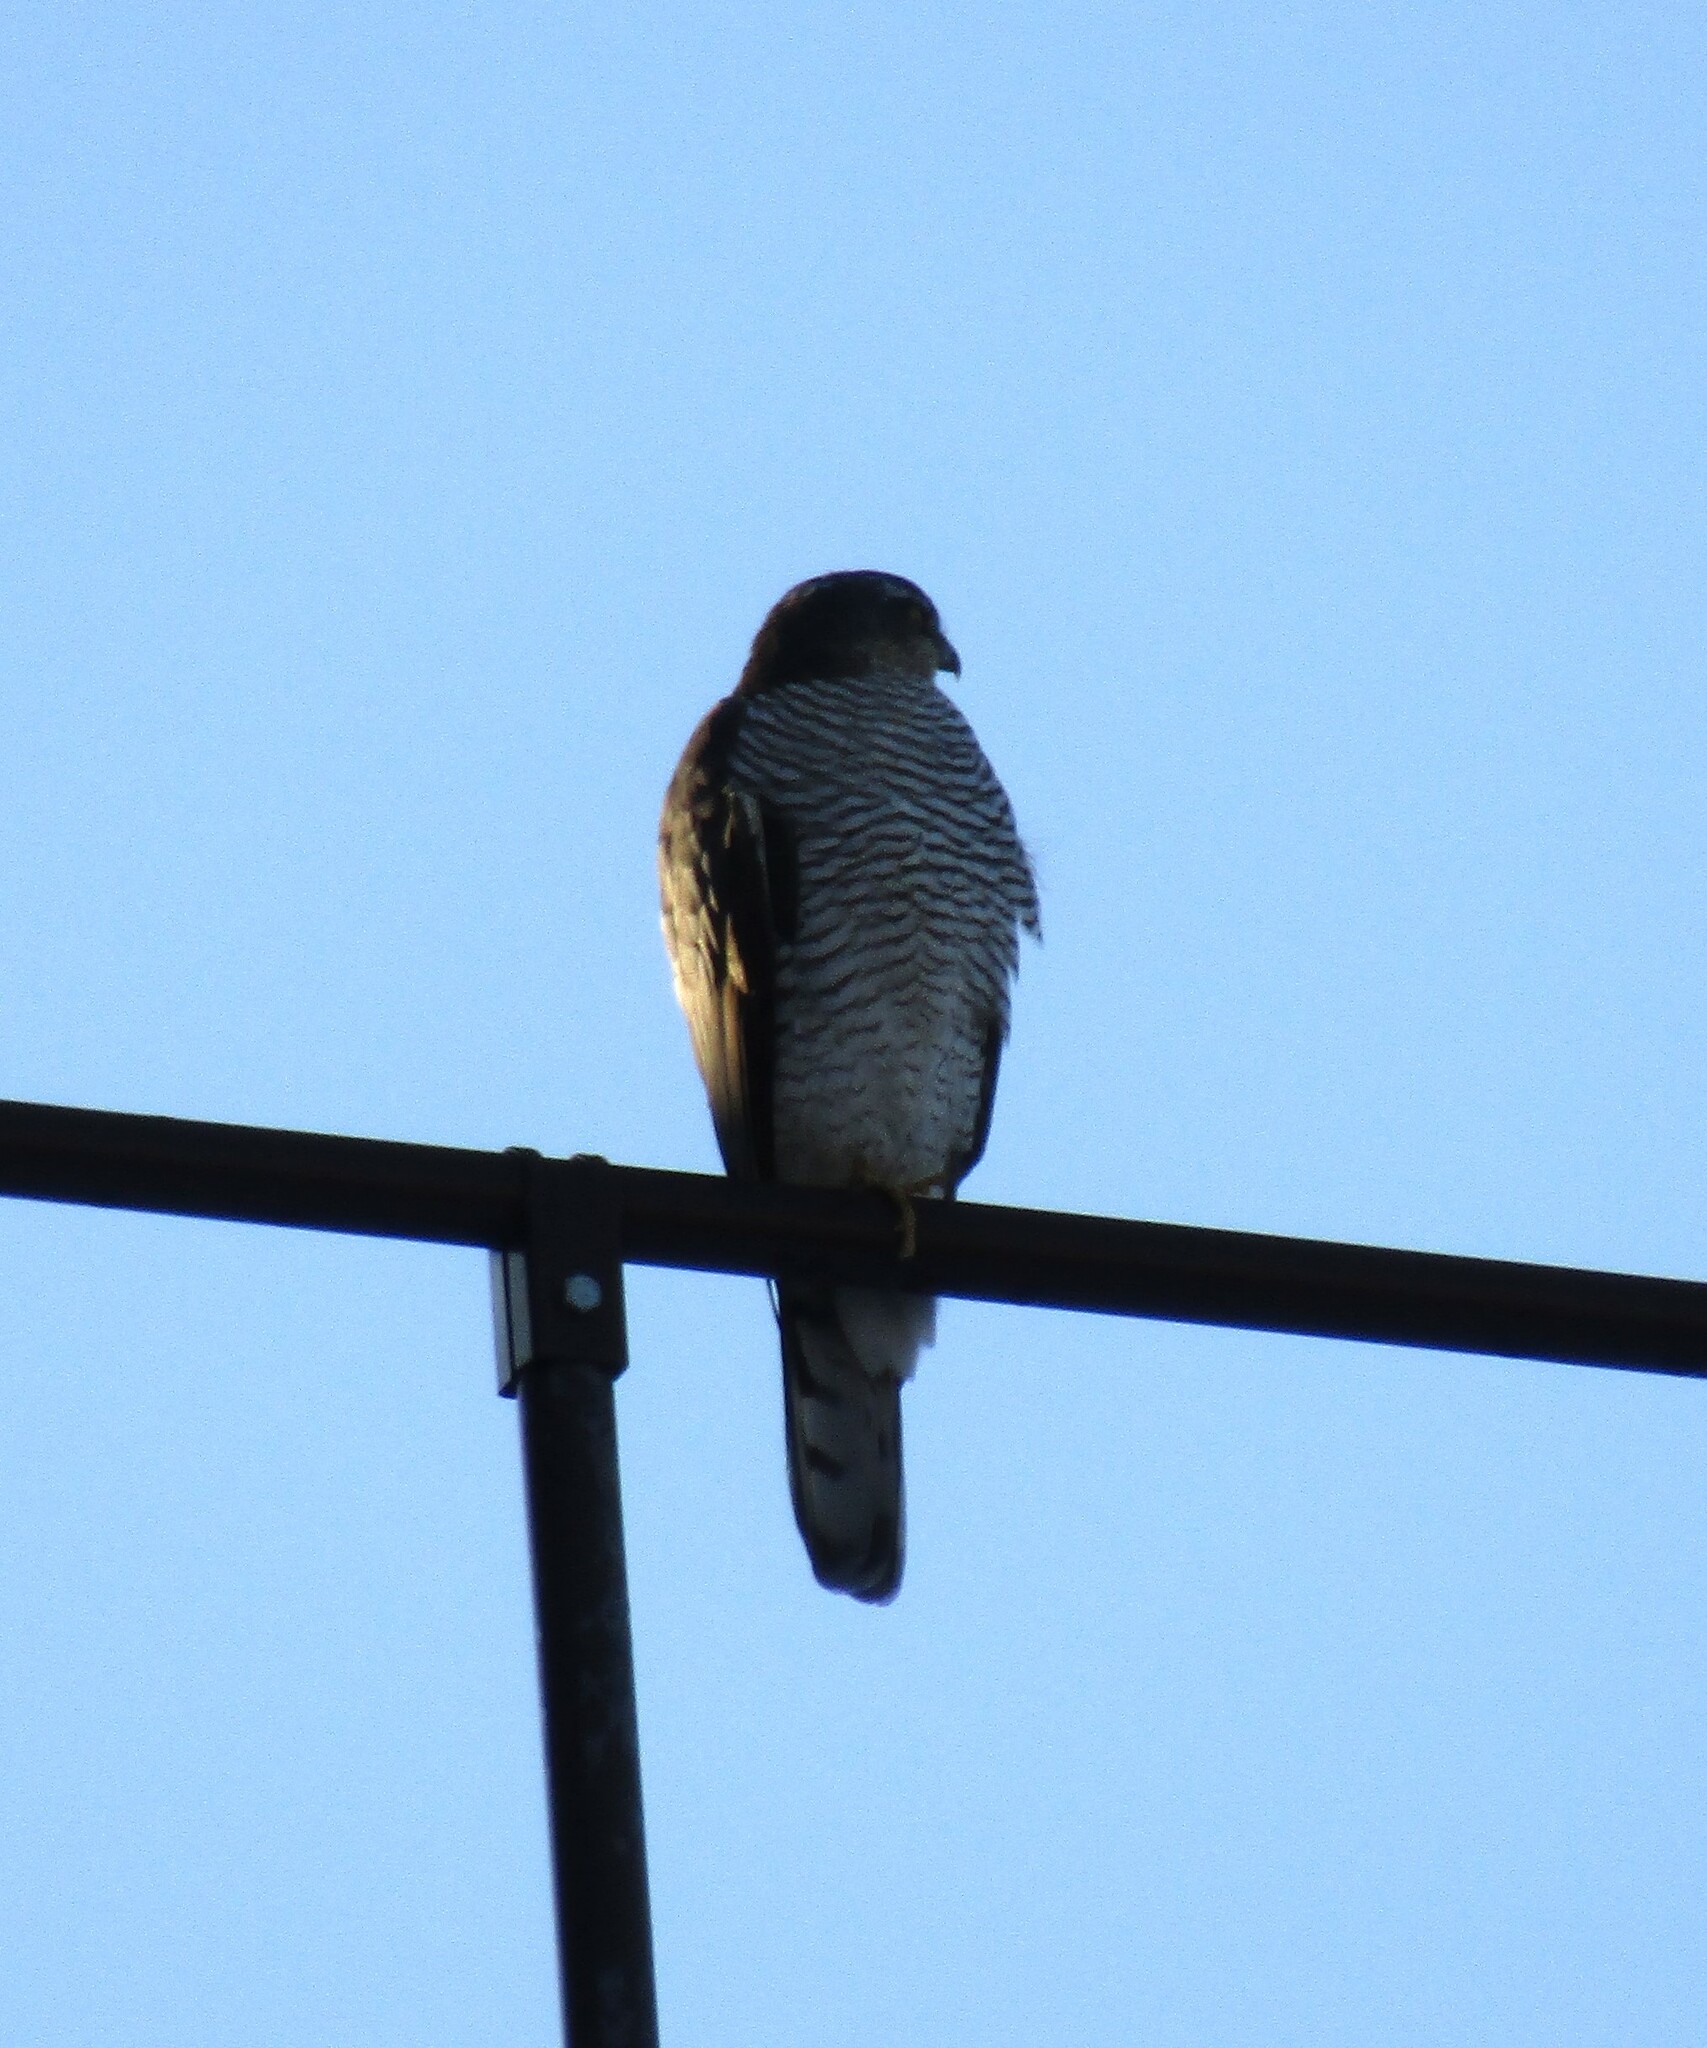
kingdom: Animalia
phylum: Chordata
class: Aves
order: Accipitriformes
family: Accipitridae
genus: Accipiter
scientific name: Accipiter nisus
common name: Eurasian sparrowhawk
